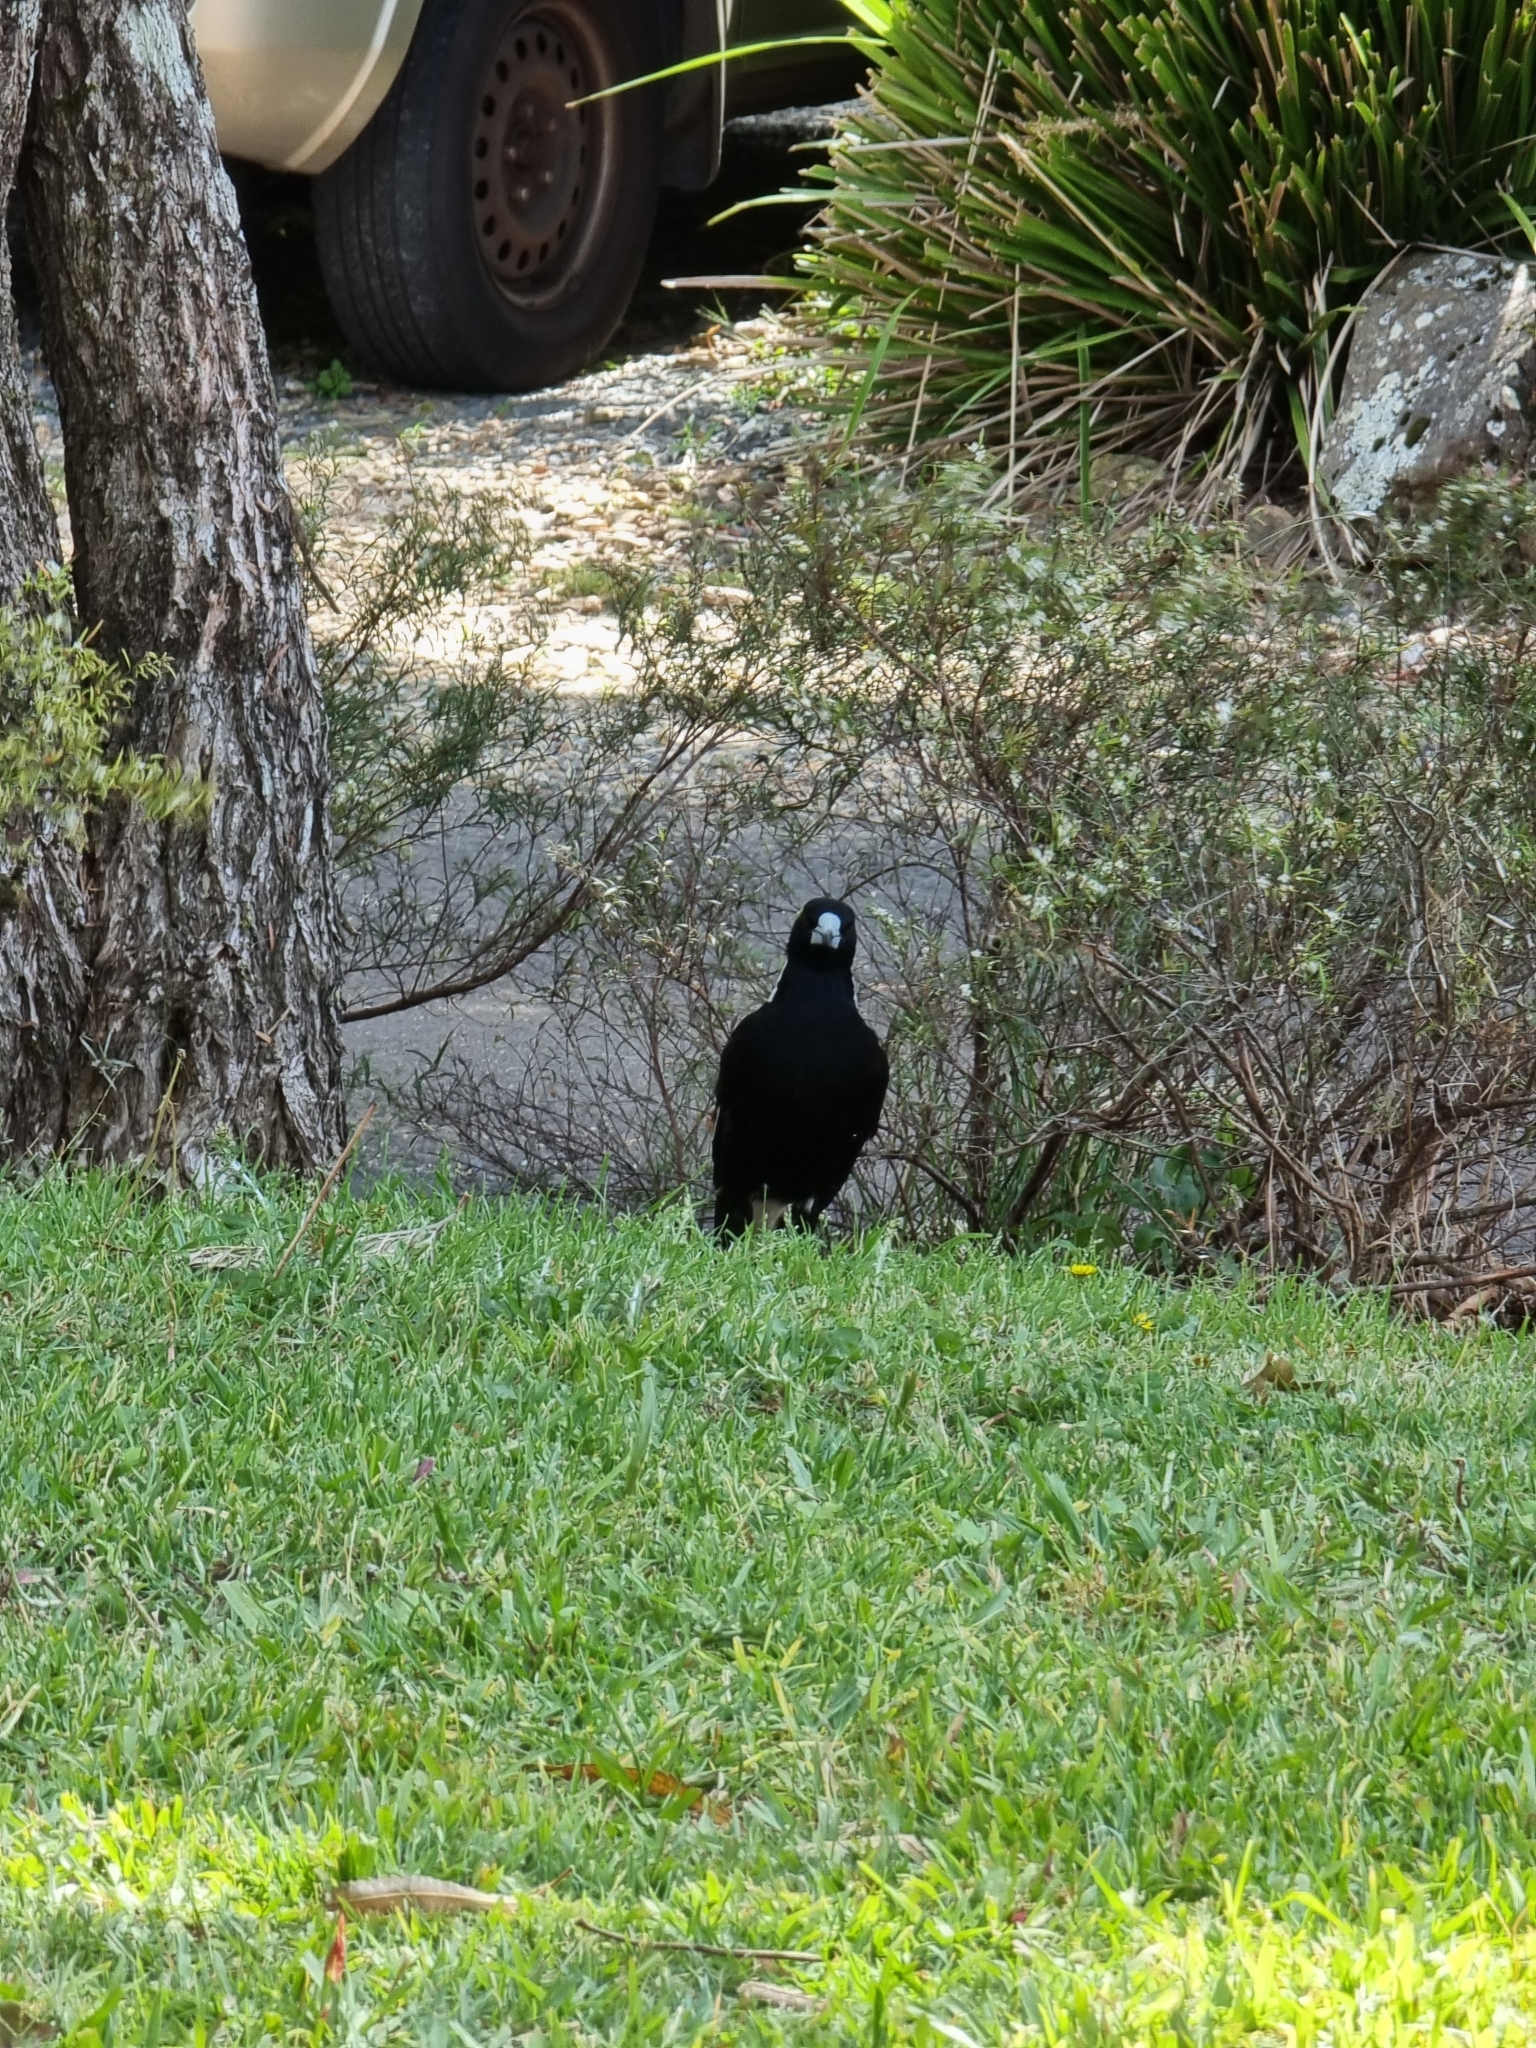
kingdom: Animalia
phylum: Chordata
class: Aves
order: Passeriformes
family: Cracticidae
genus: Gymnorhina
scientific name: Gymnorhina tibicen
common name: Australian magpie
